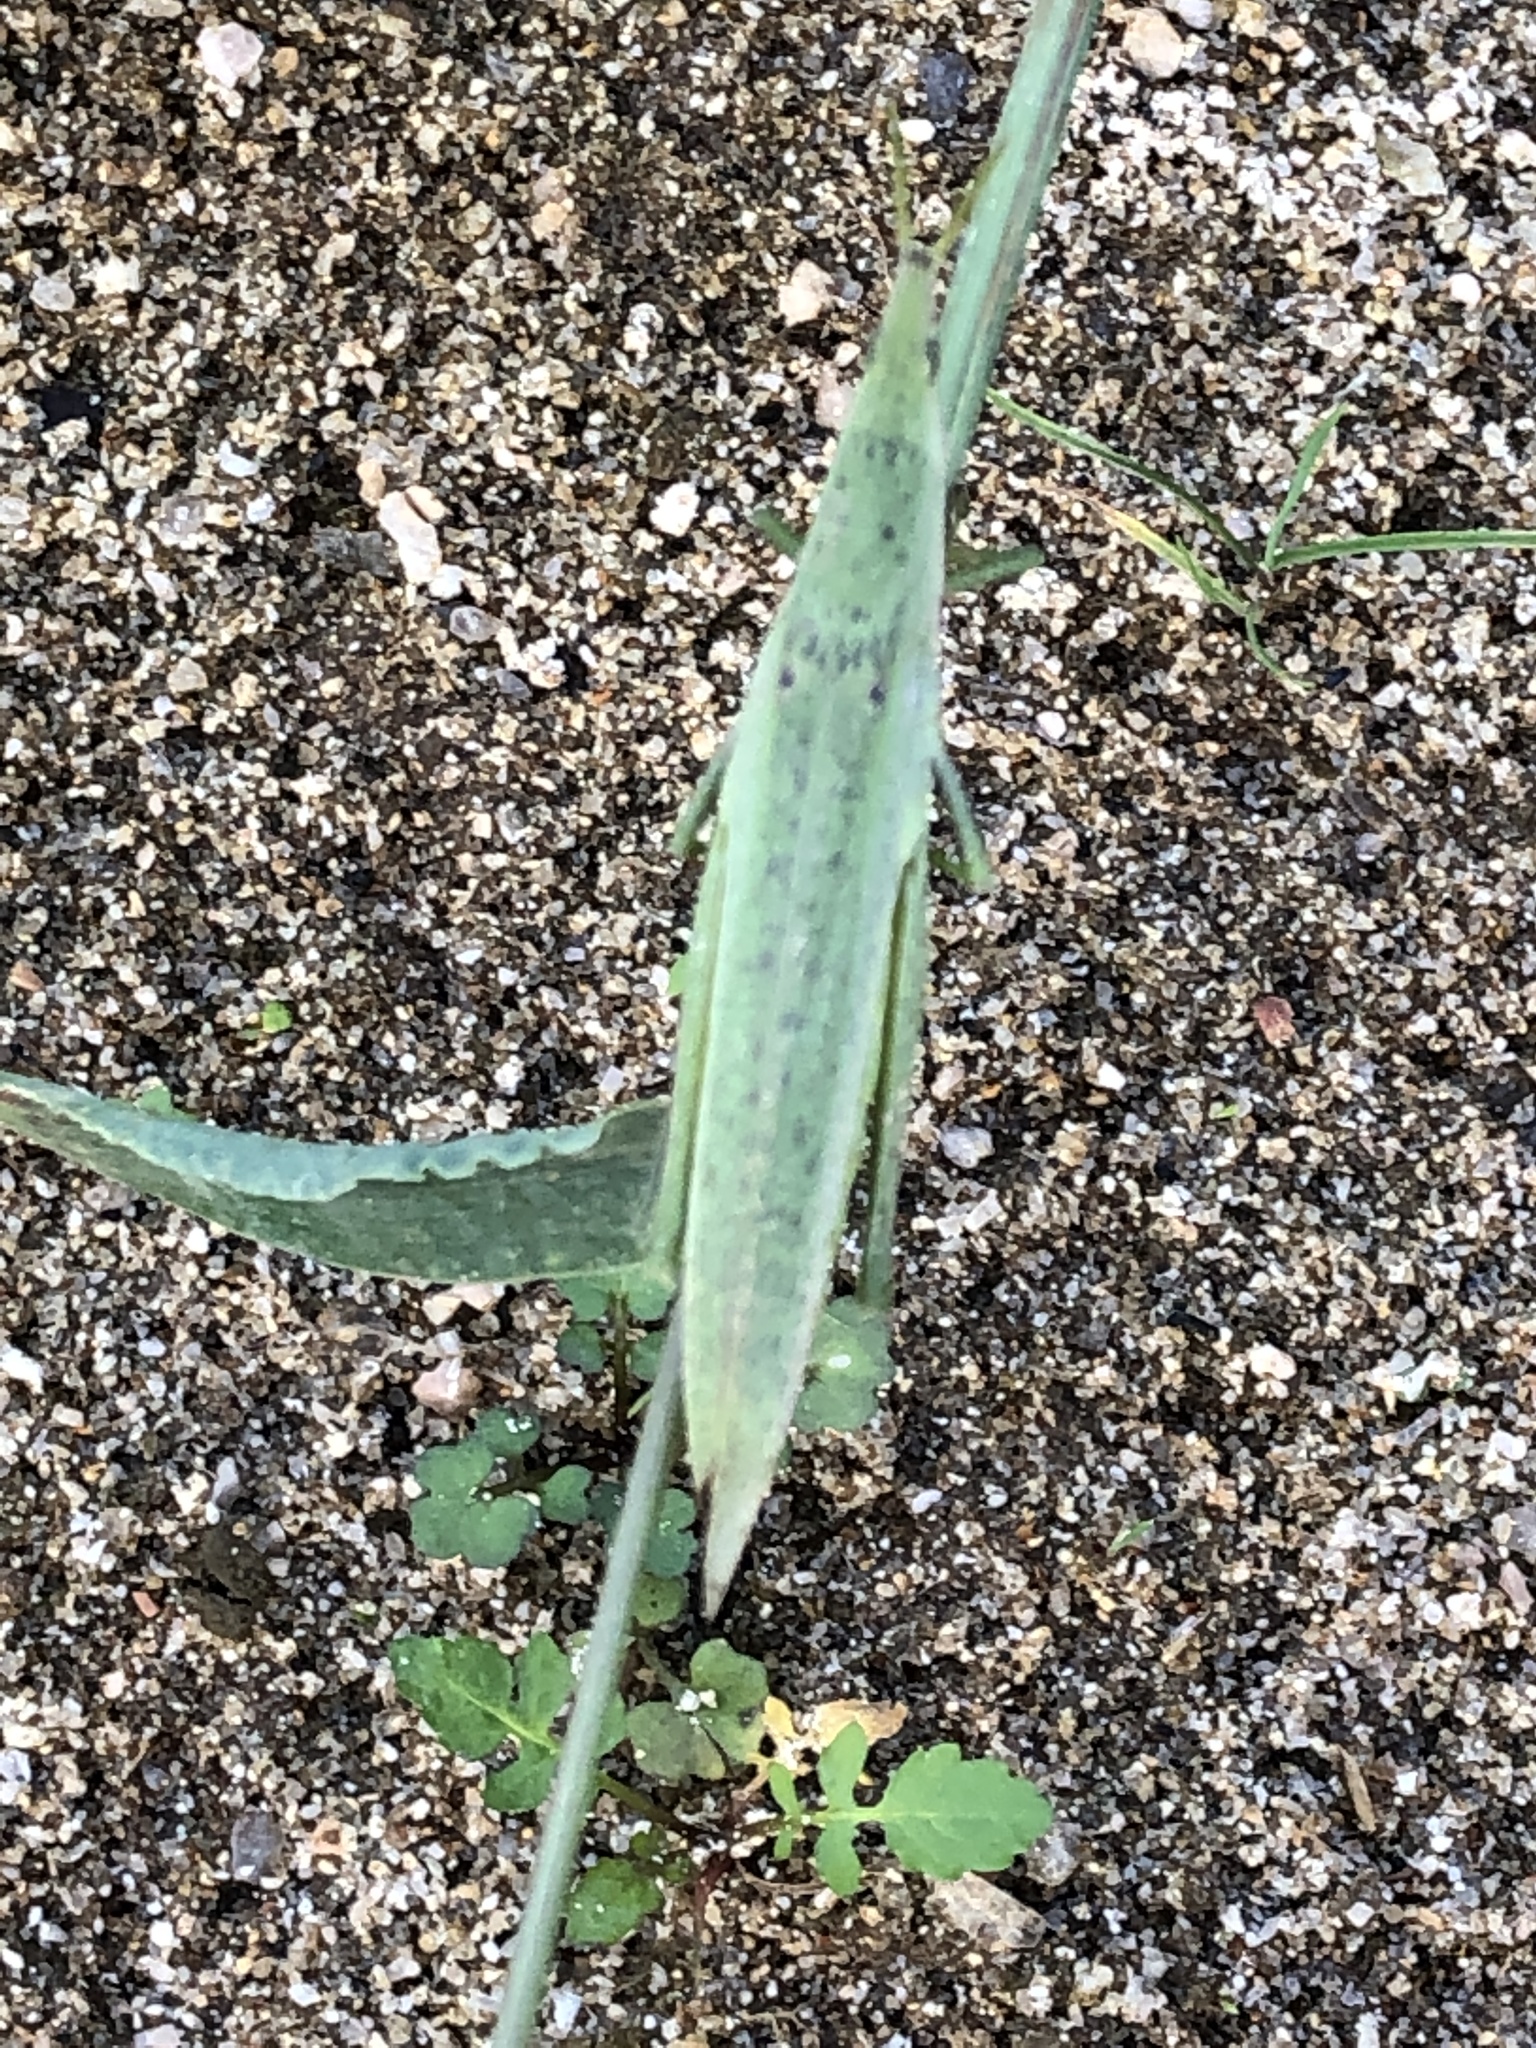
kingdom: Animalia
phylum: Arthropoda
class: Insecta
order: Orthoptera
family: Pyrgomorphidae
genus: Atractomorpha
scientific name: Atractomorpha lata
